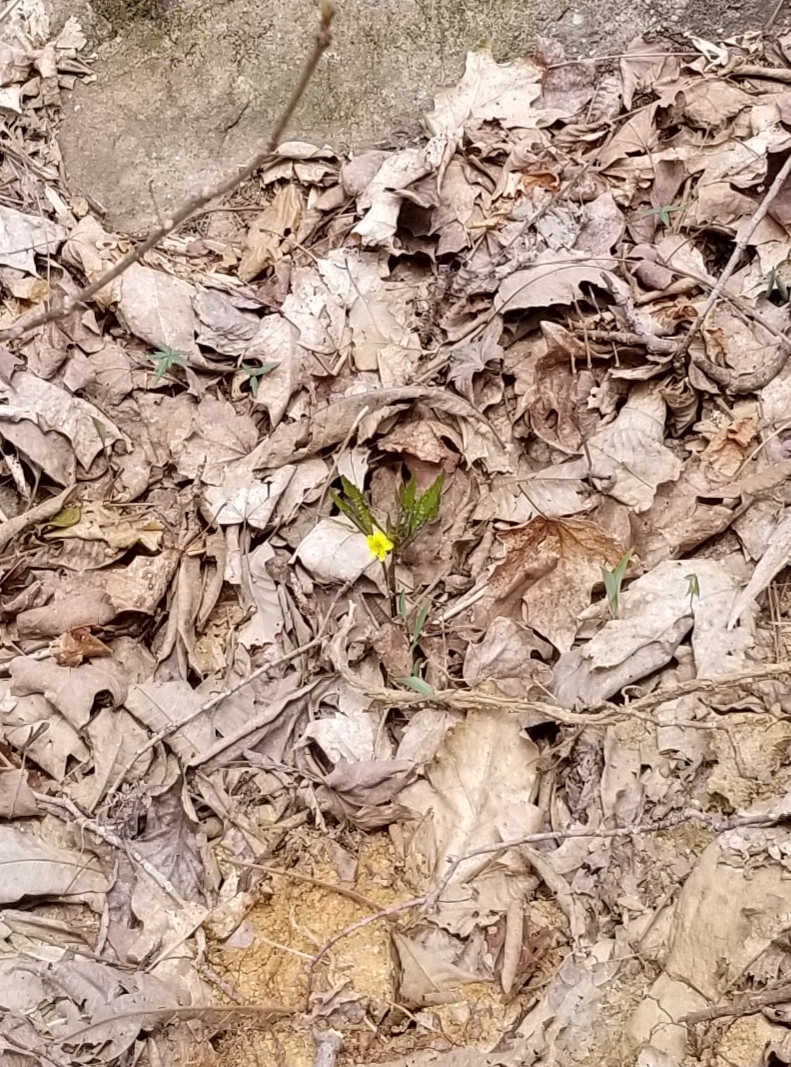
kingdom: Plantae
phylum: Tracheophyta
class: Magnoliopsida
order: Malpighiales
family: Violaceae
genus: Viola
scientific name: Viola tripartita
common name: Three-part violet
